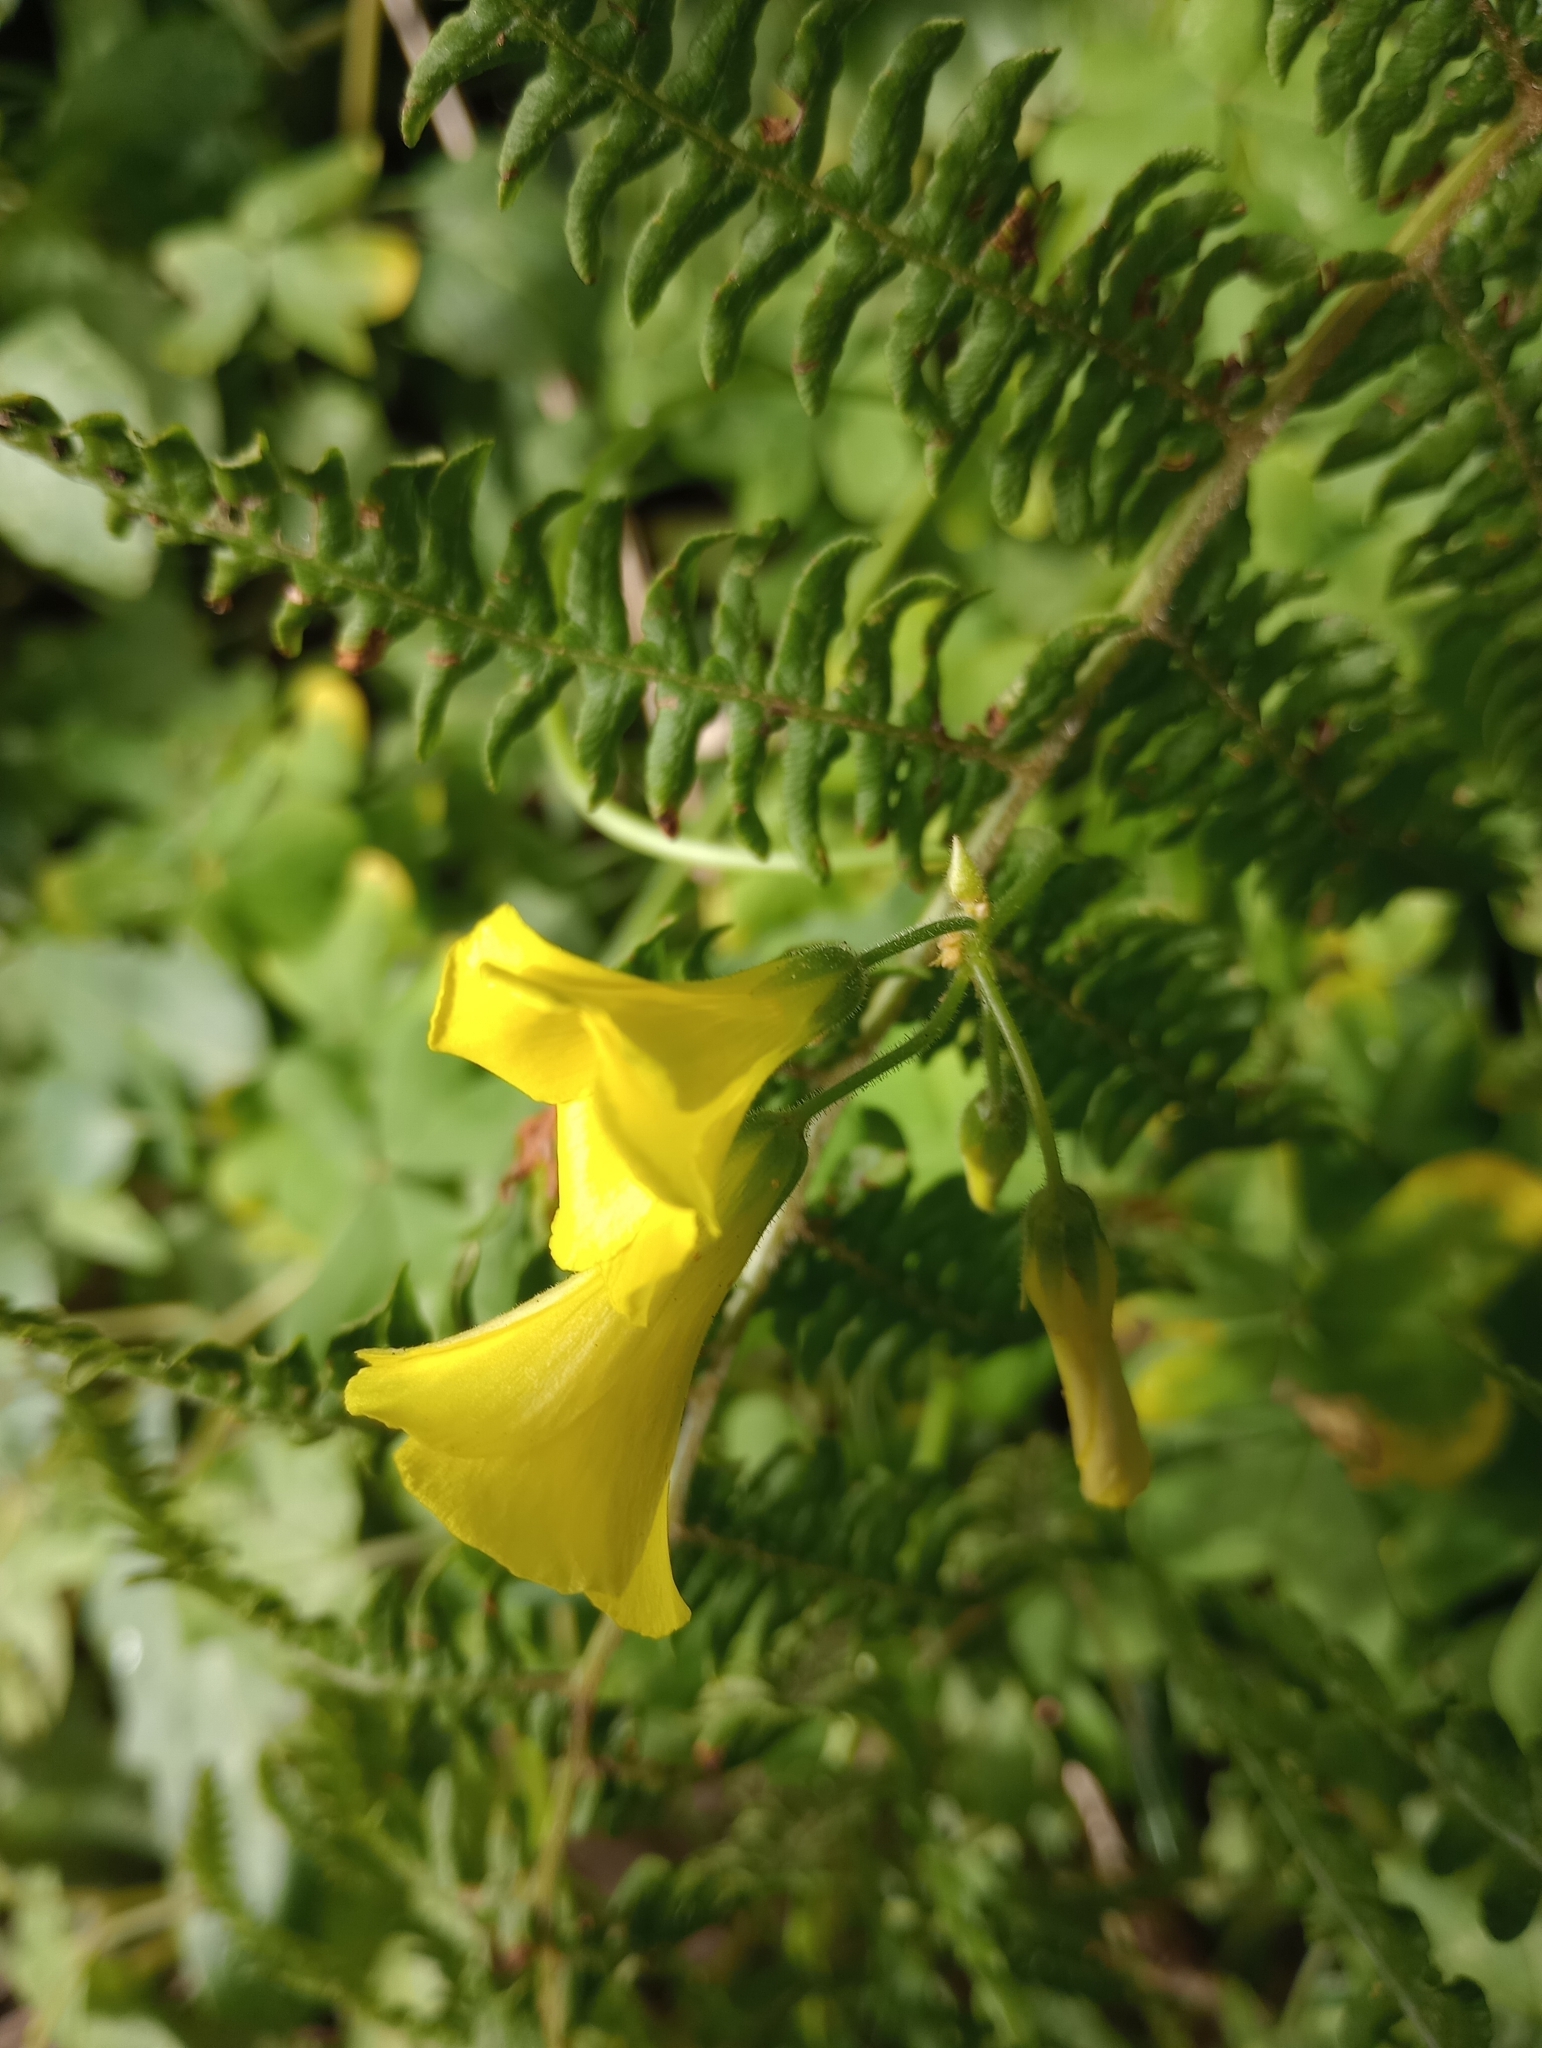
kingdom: Plantae
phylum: Tracheophyta
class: Magnoliopsida
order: Oxalidales
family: Oxalidaceae
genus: Oxalis
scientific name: Oxalis pes-caprae
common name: Bermuda-buttercup
